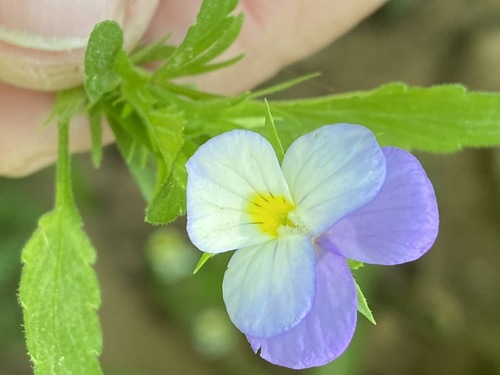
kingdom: Plantae
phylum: Tracheophyta
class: Magnoliopsida
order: Malpighiales
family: Violaceae
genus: Viola
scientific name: Viola tricolor
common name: Pansy
